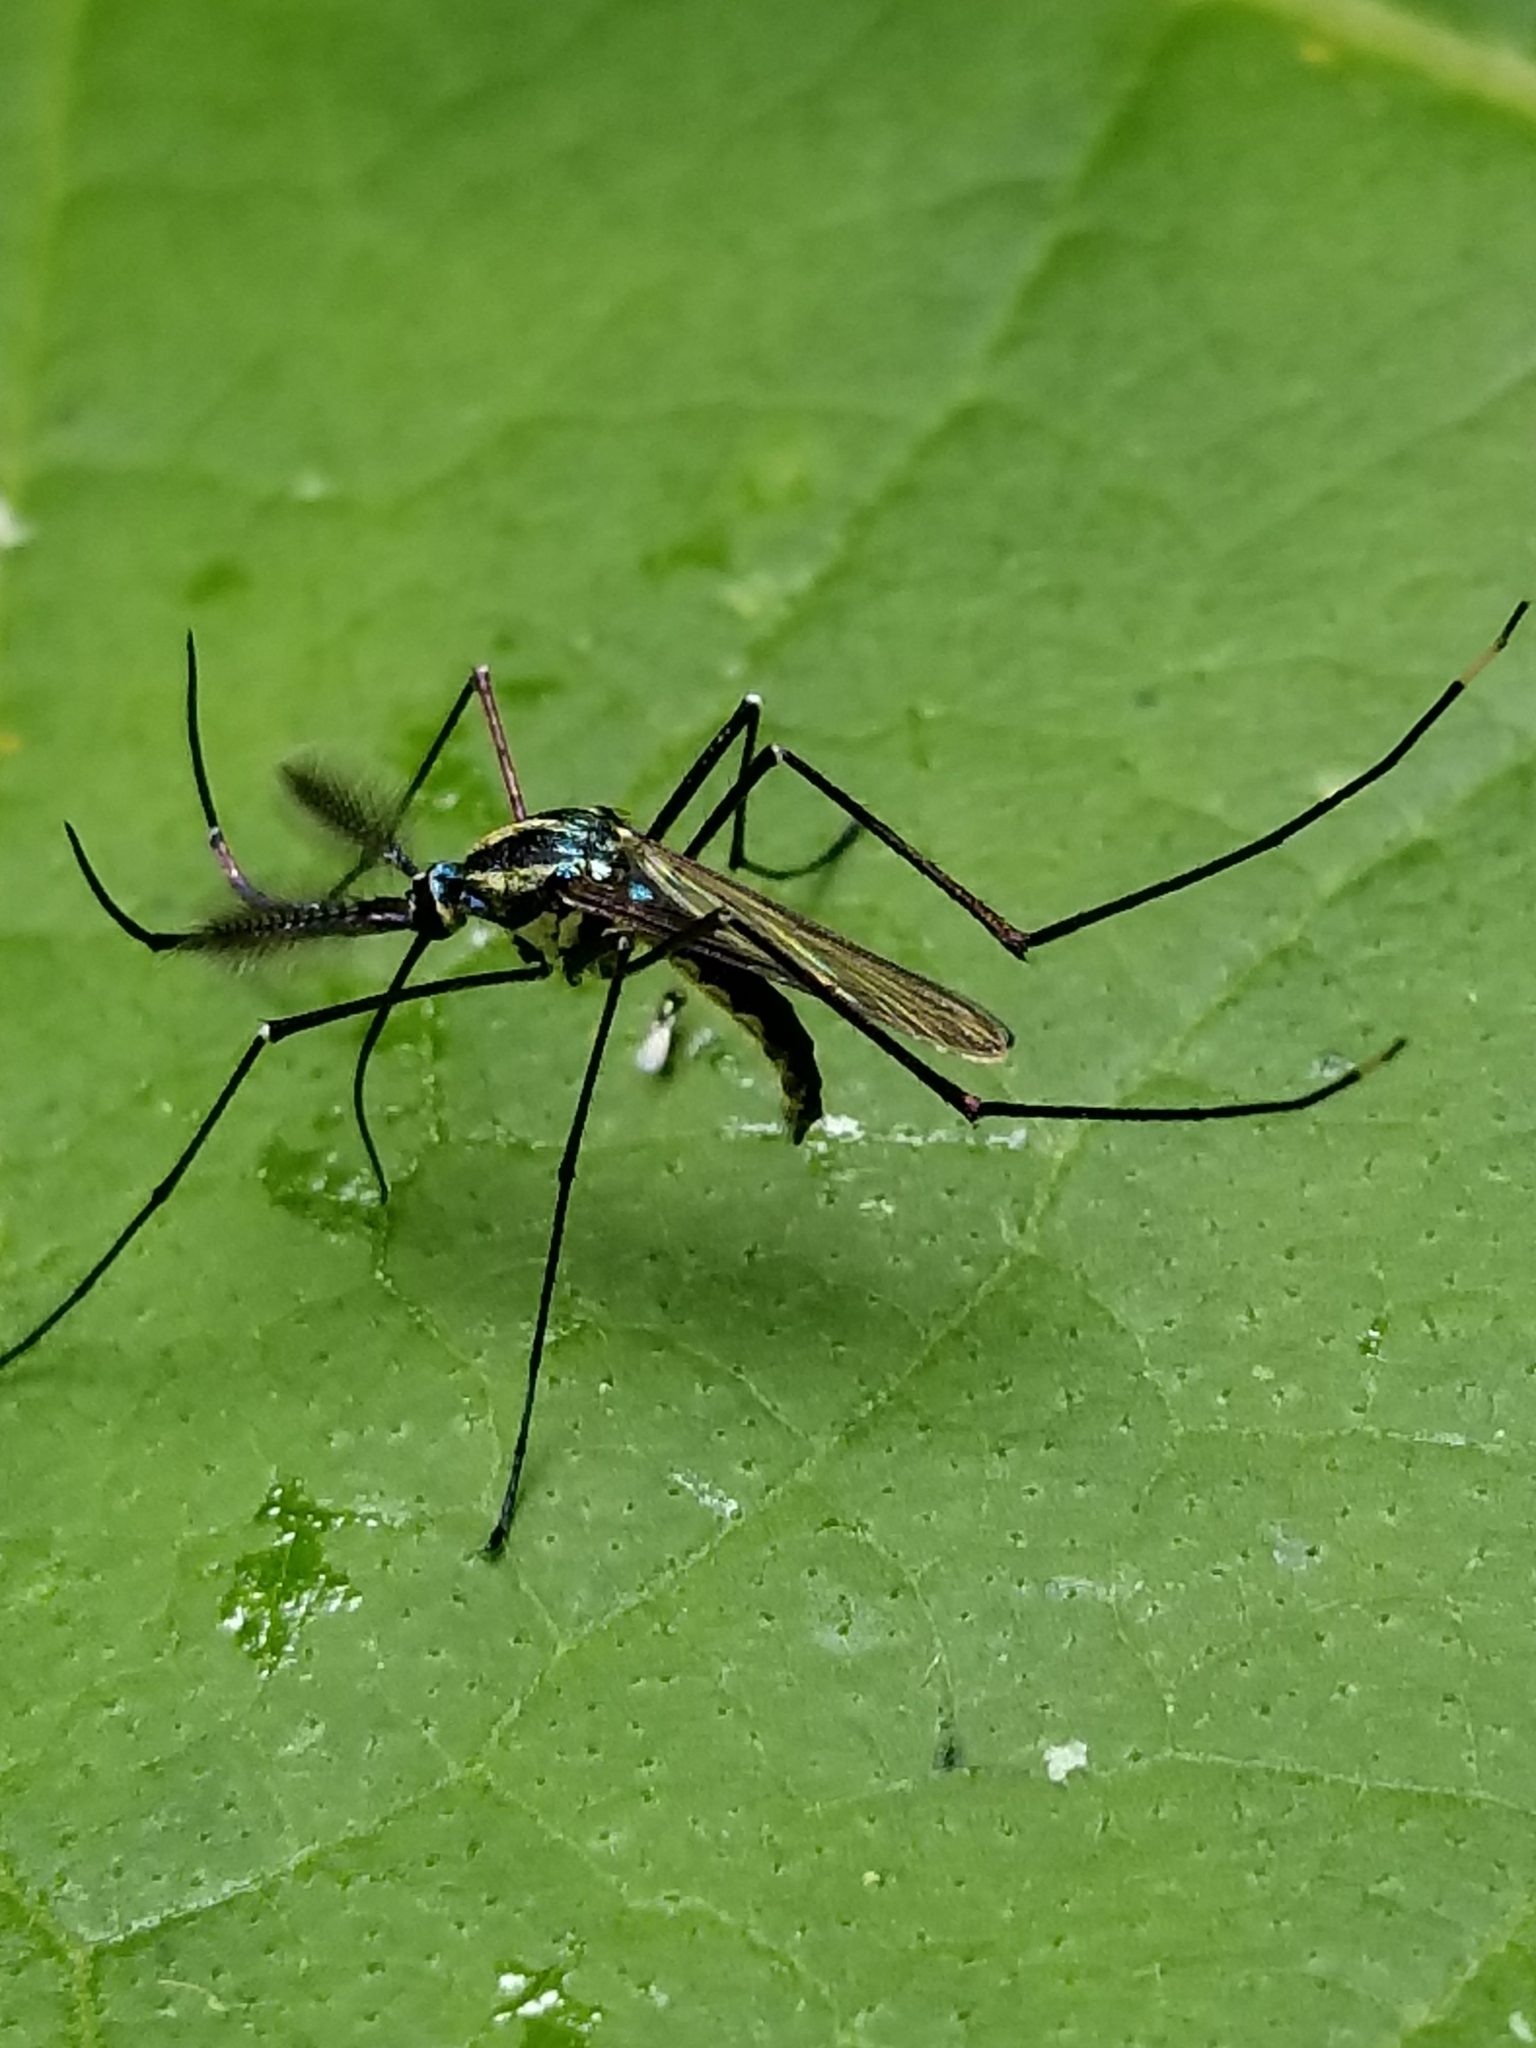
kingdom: Animalia
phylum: Arthropoda
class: Insecta
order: Diptera
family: Culicidae
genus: Toxorhynchites
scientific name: Toxorhynchites rutilus
